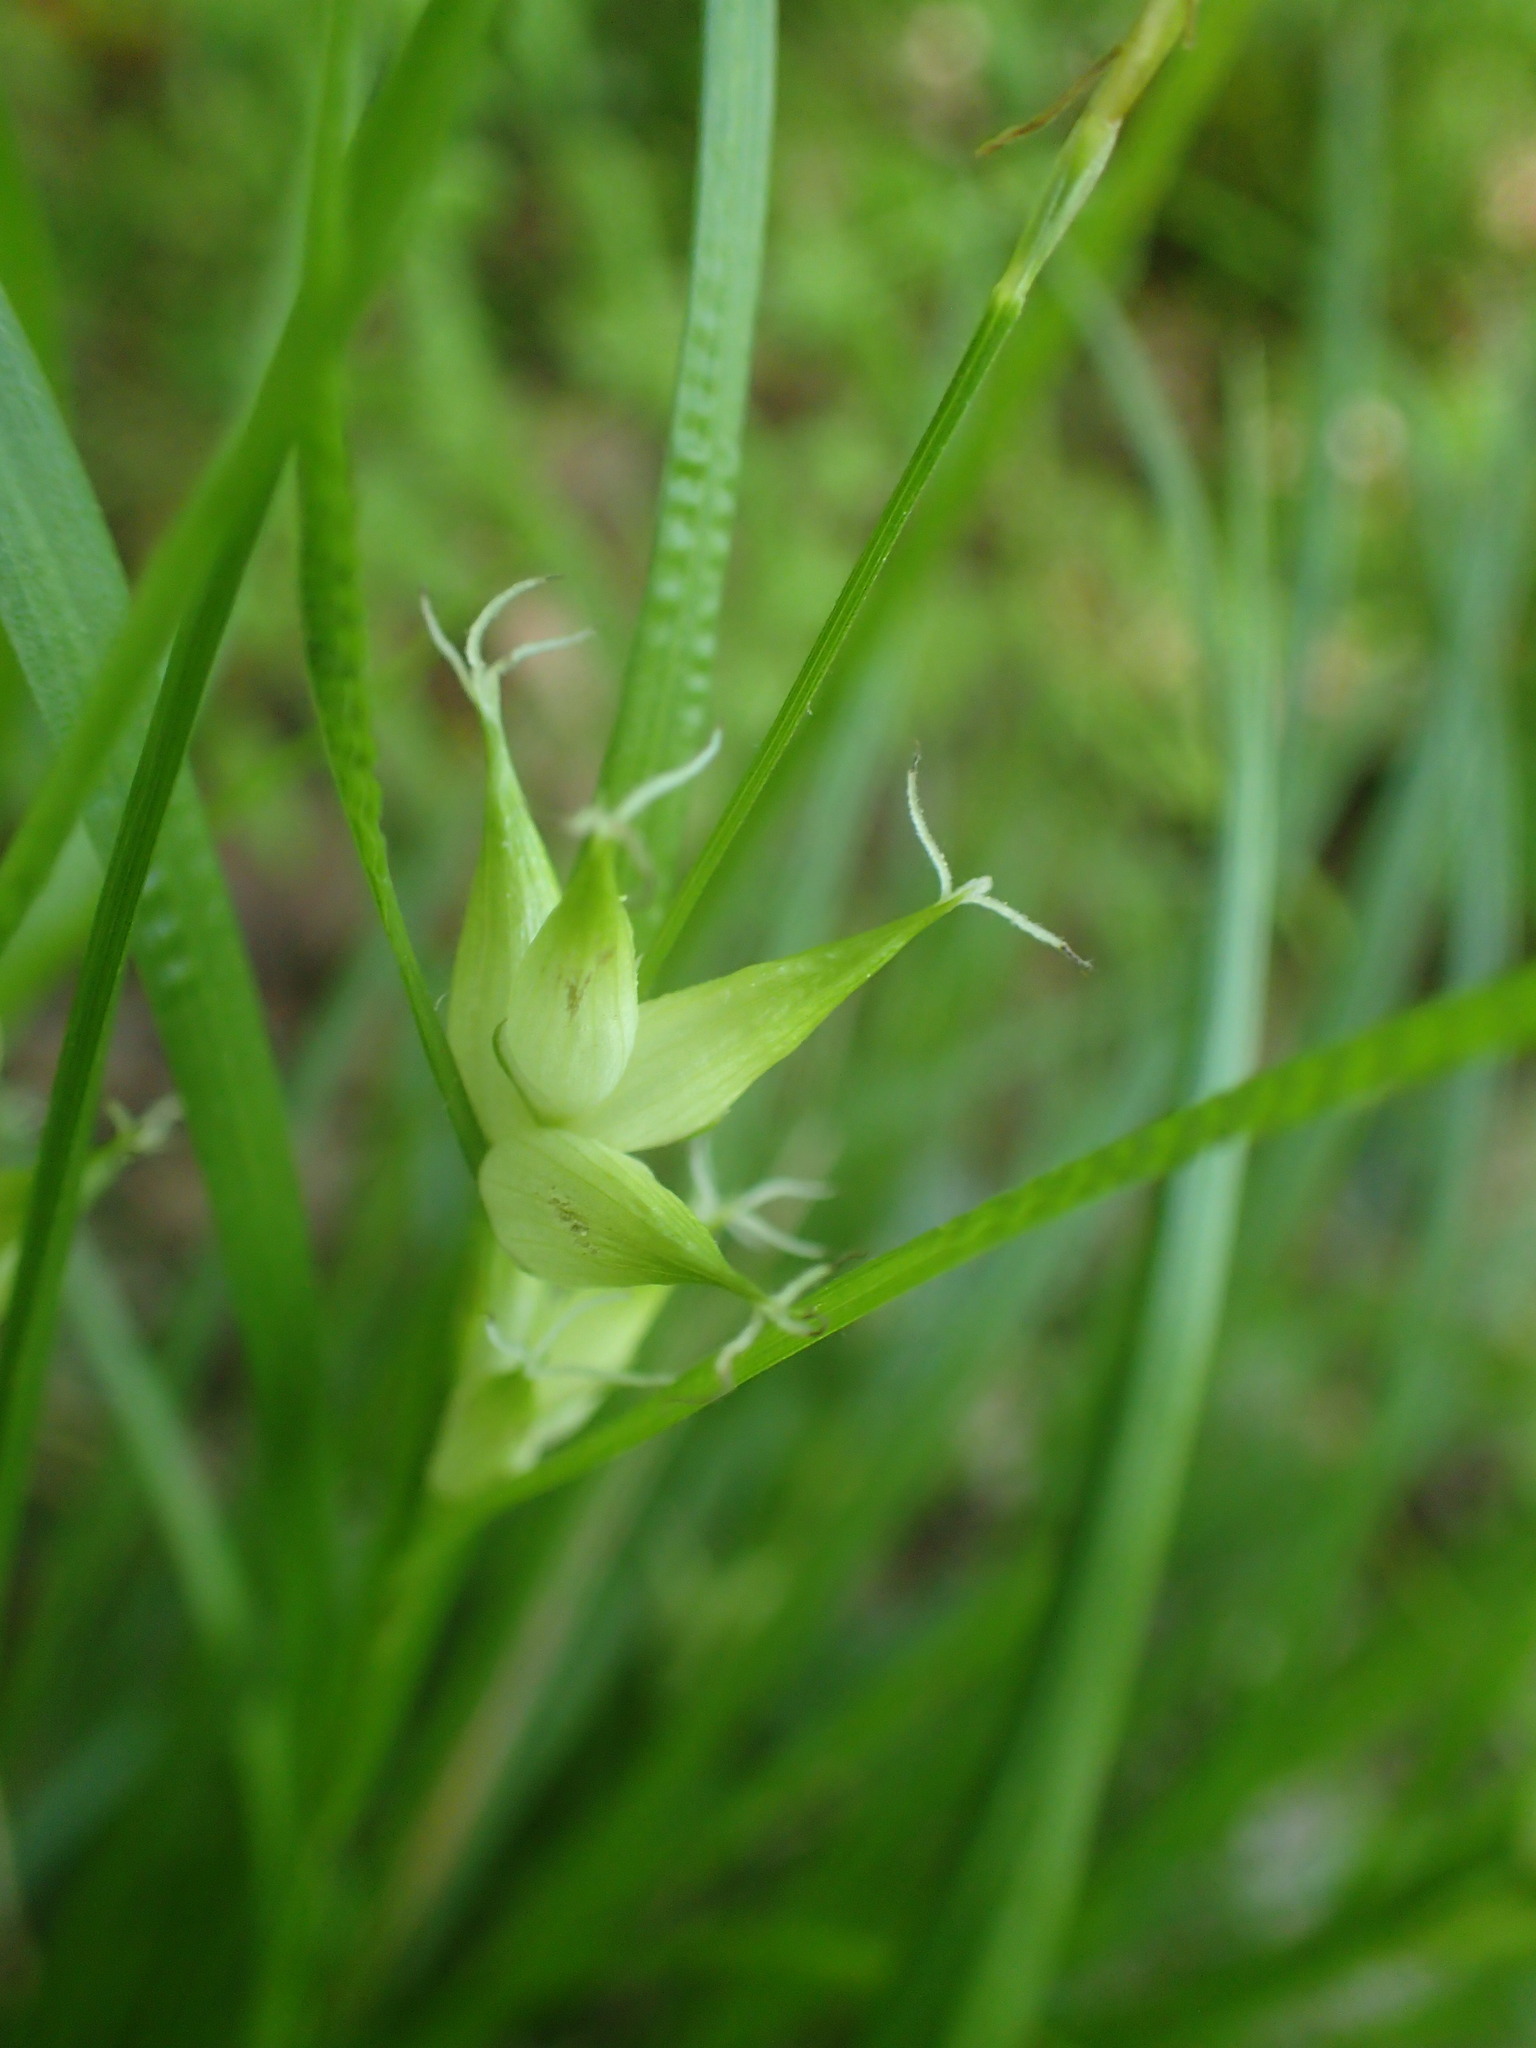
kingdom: Plantae
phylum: Tracheophyta
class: Liliopsida
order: Poales
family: Cyperaceae
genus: Carex
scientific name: Carex intumescens
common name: Greater bladder sedge
